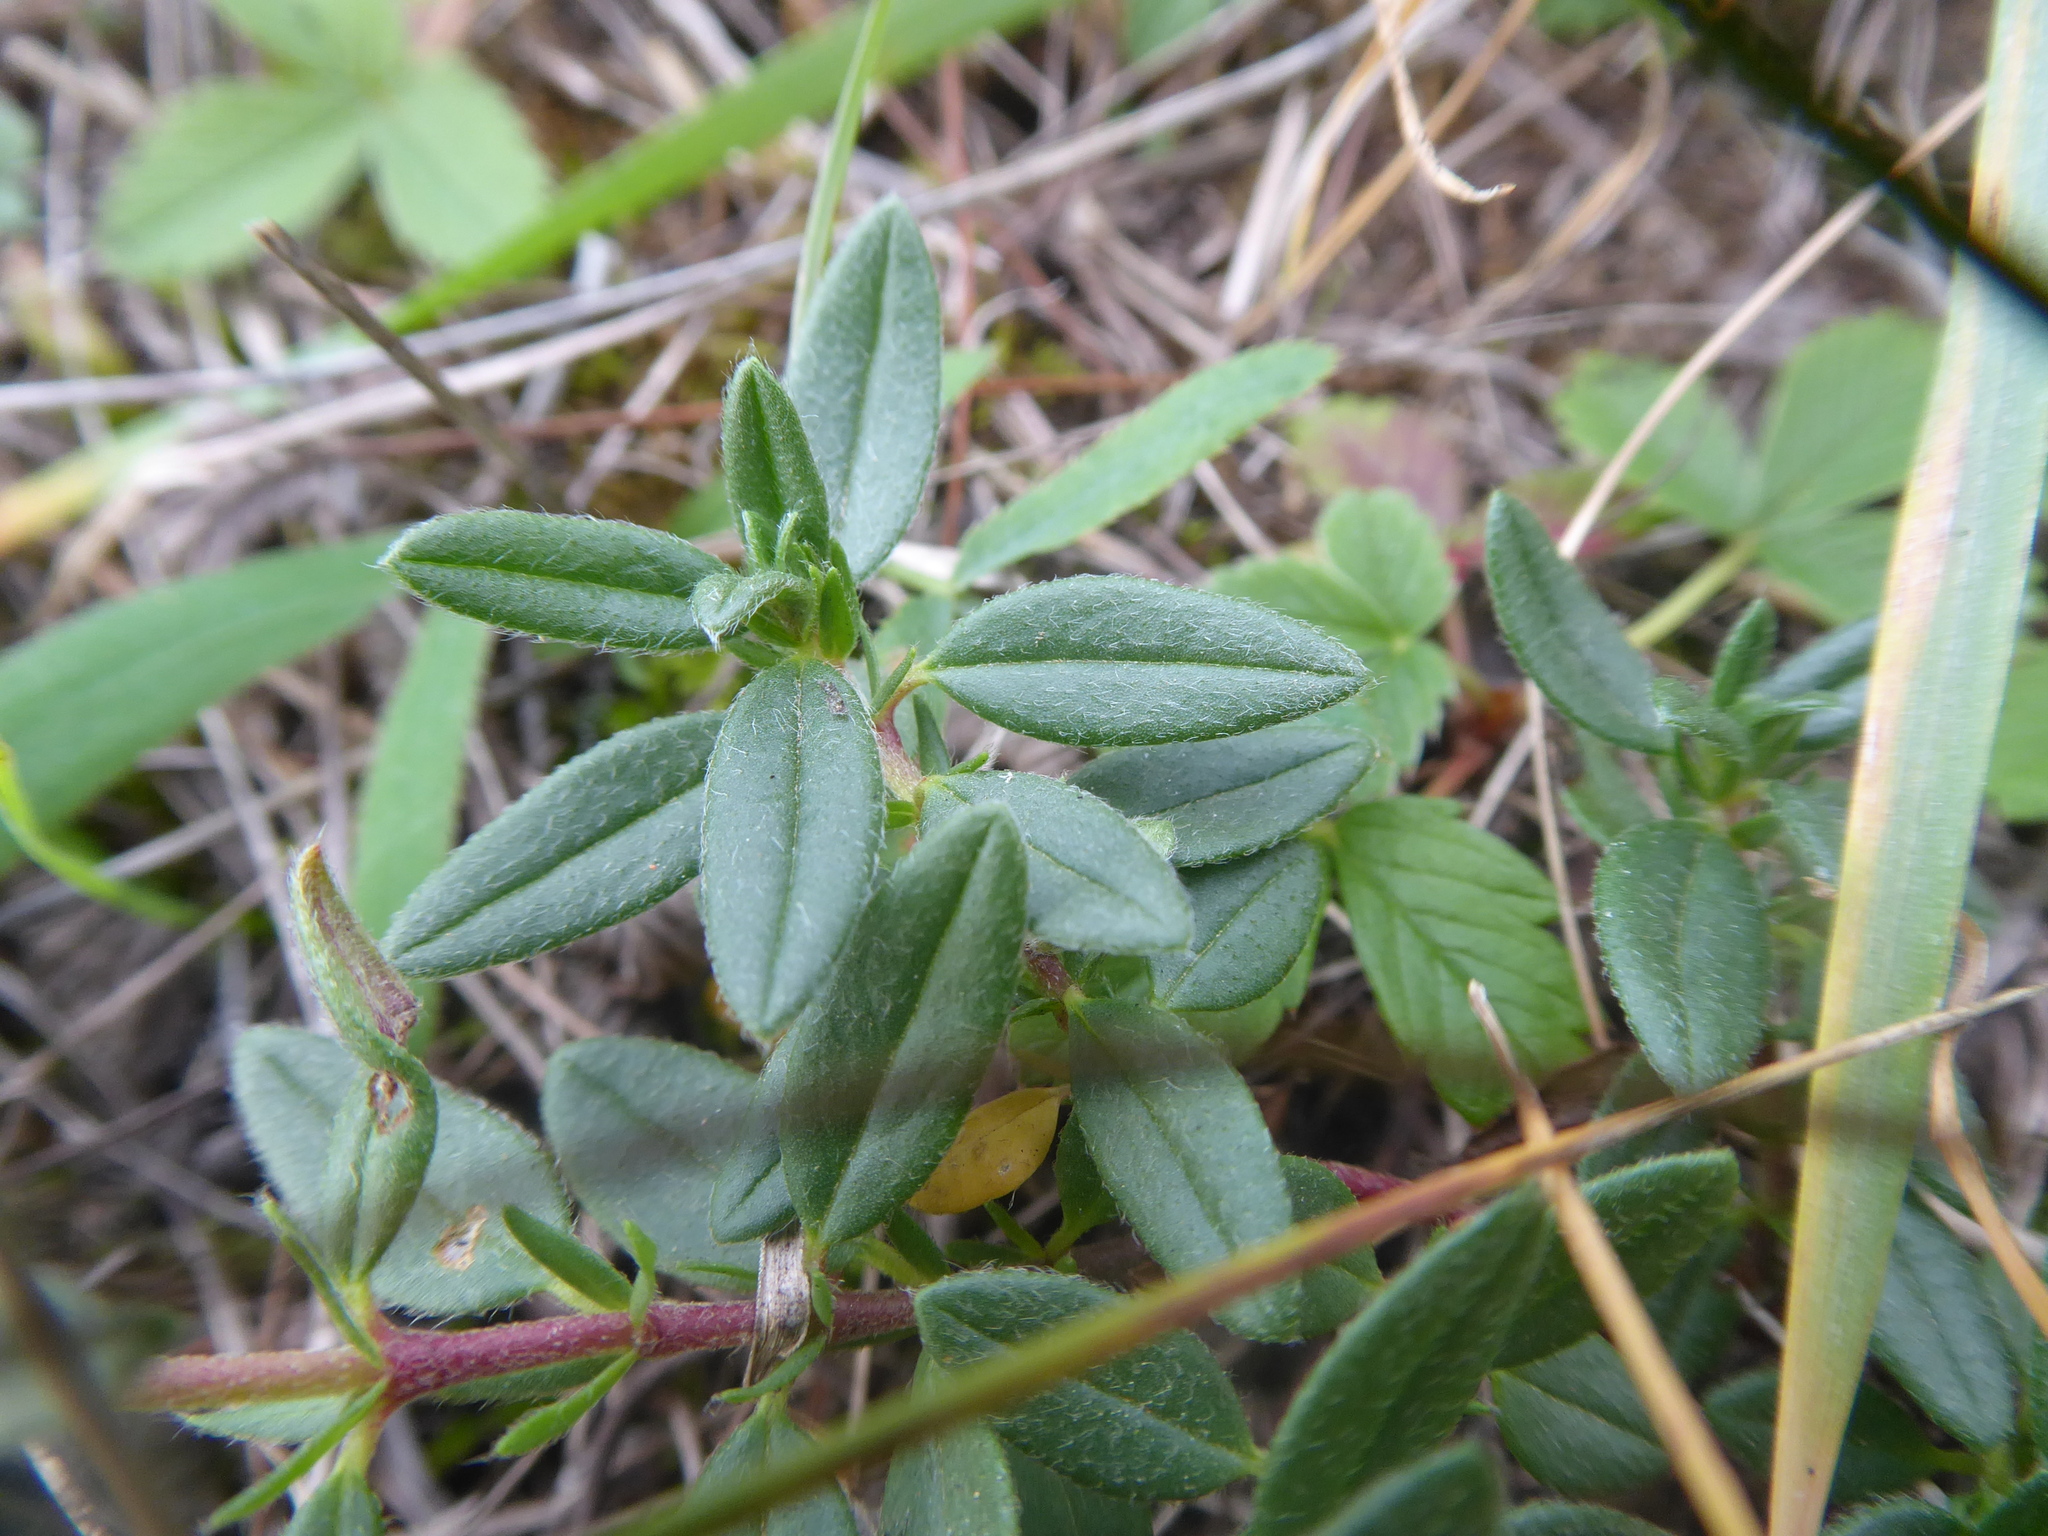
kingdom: Plantae
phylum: Tracheophyta
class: Magnoliopsida
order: Malvales
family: Cistaceae
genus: Helianthemum
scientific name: Helianthemum nummularium
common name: Common rock-rose
